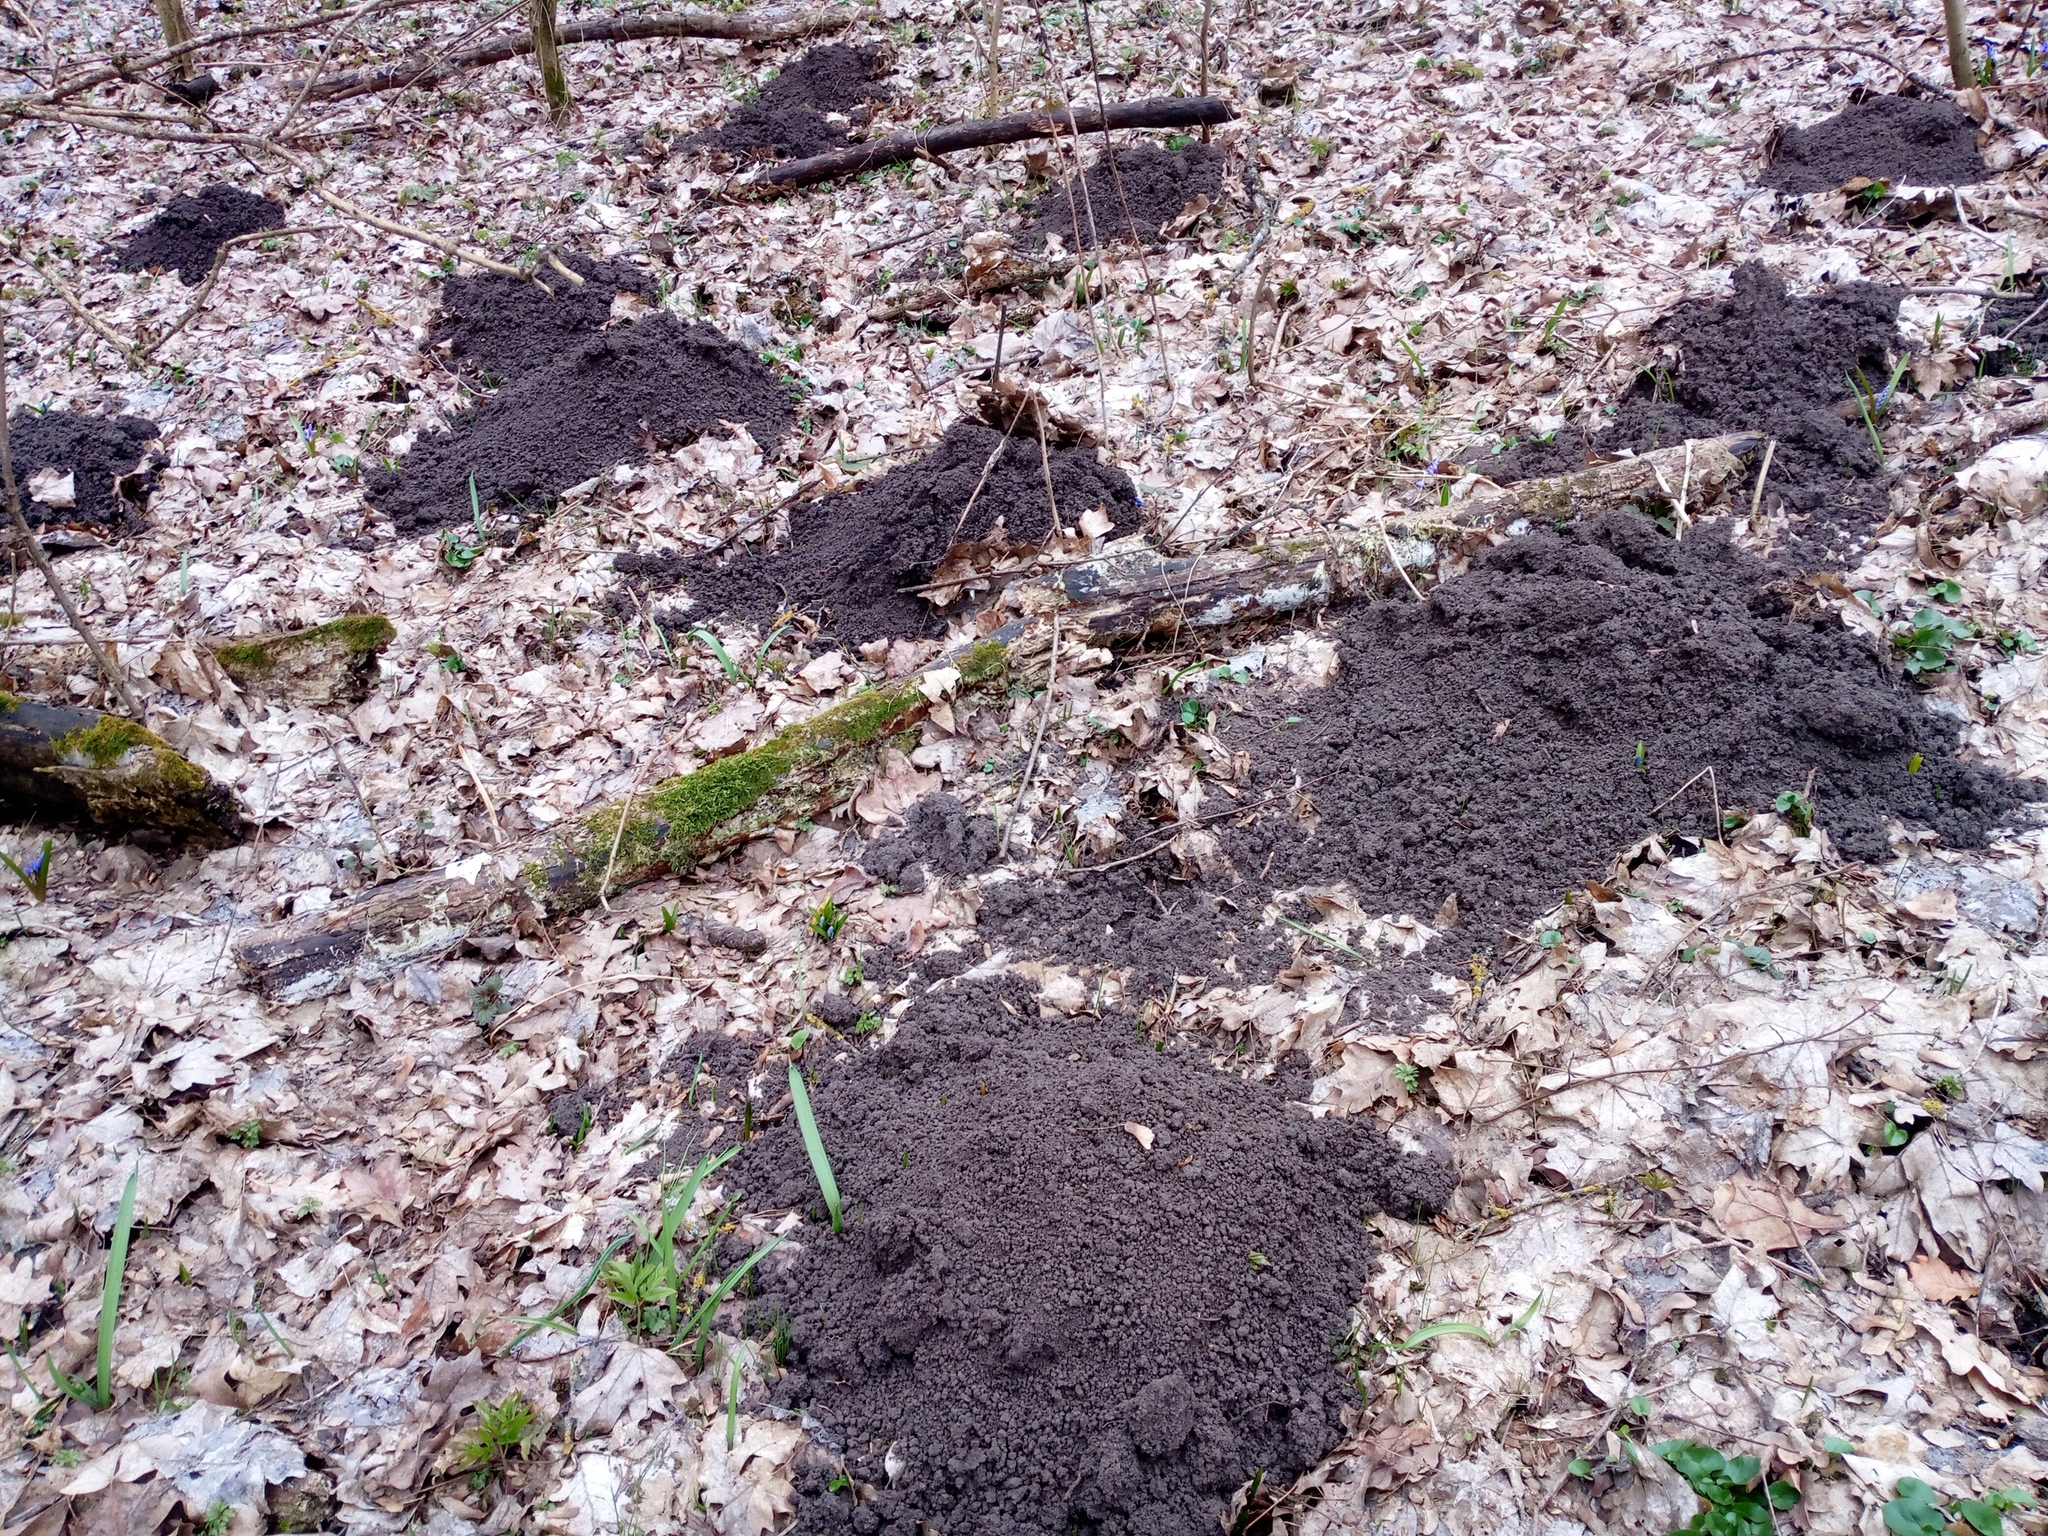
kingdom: Animalia
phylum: Chordata
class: Mammalia
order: Soricomorpha
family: Talpidae
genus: Talpa
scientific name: Talpa europaea
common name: European mole
